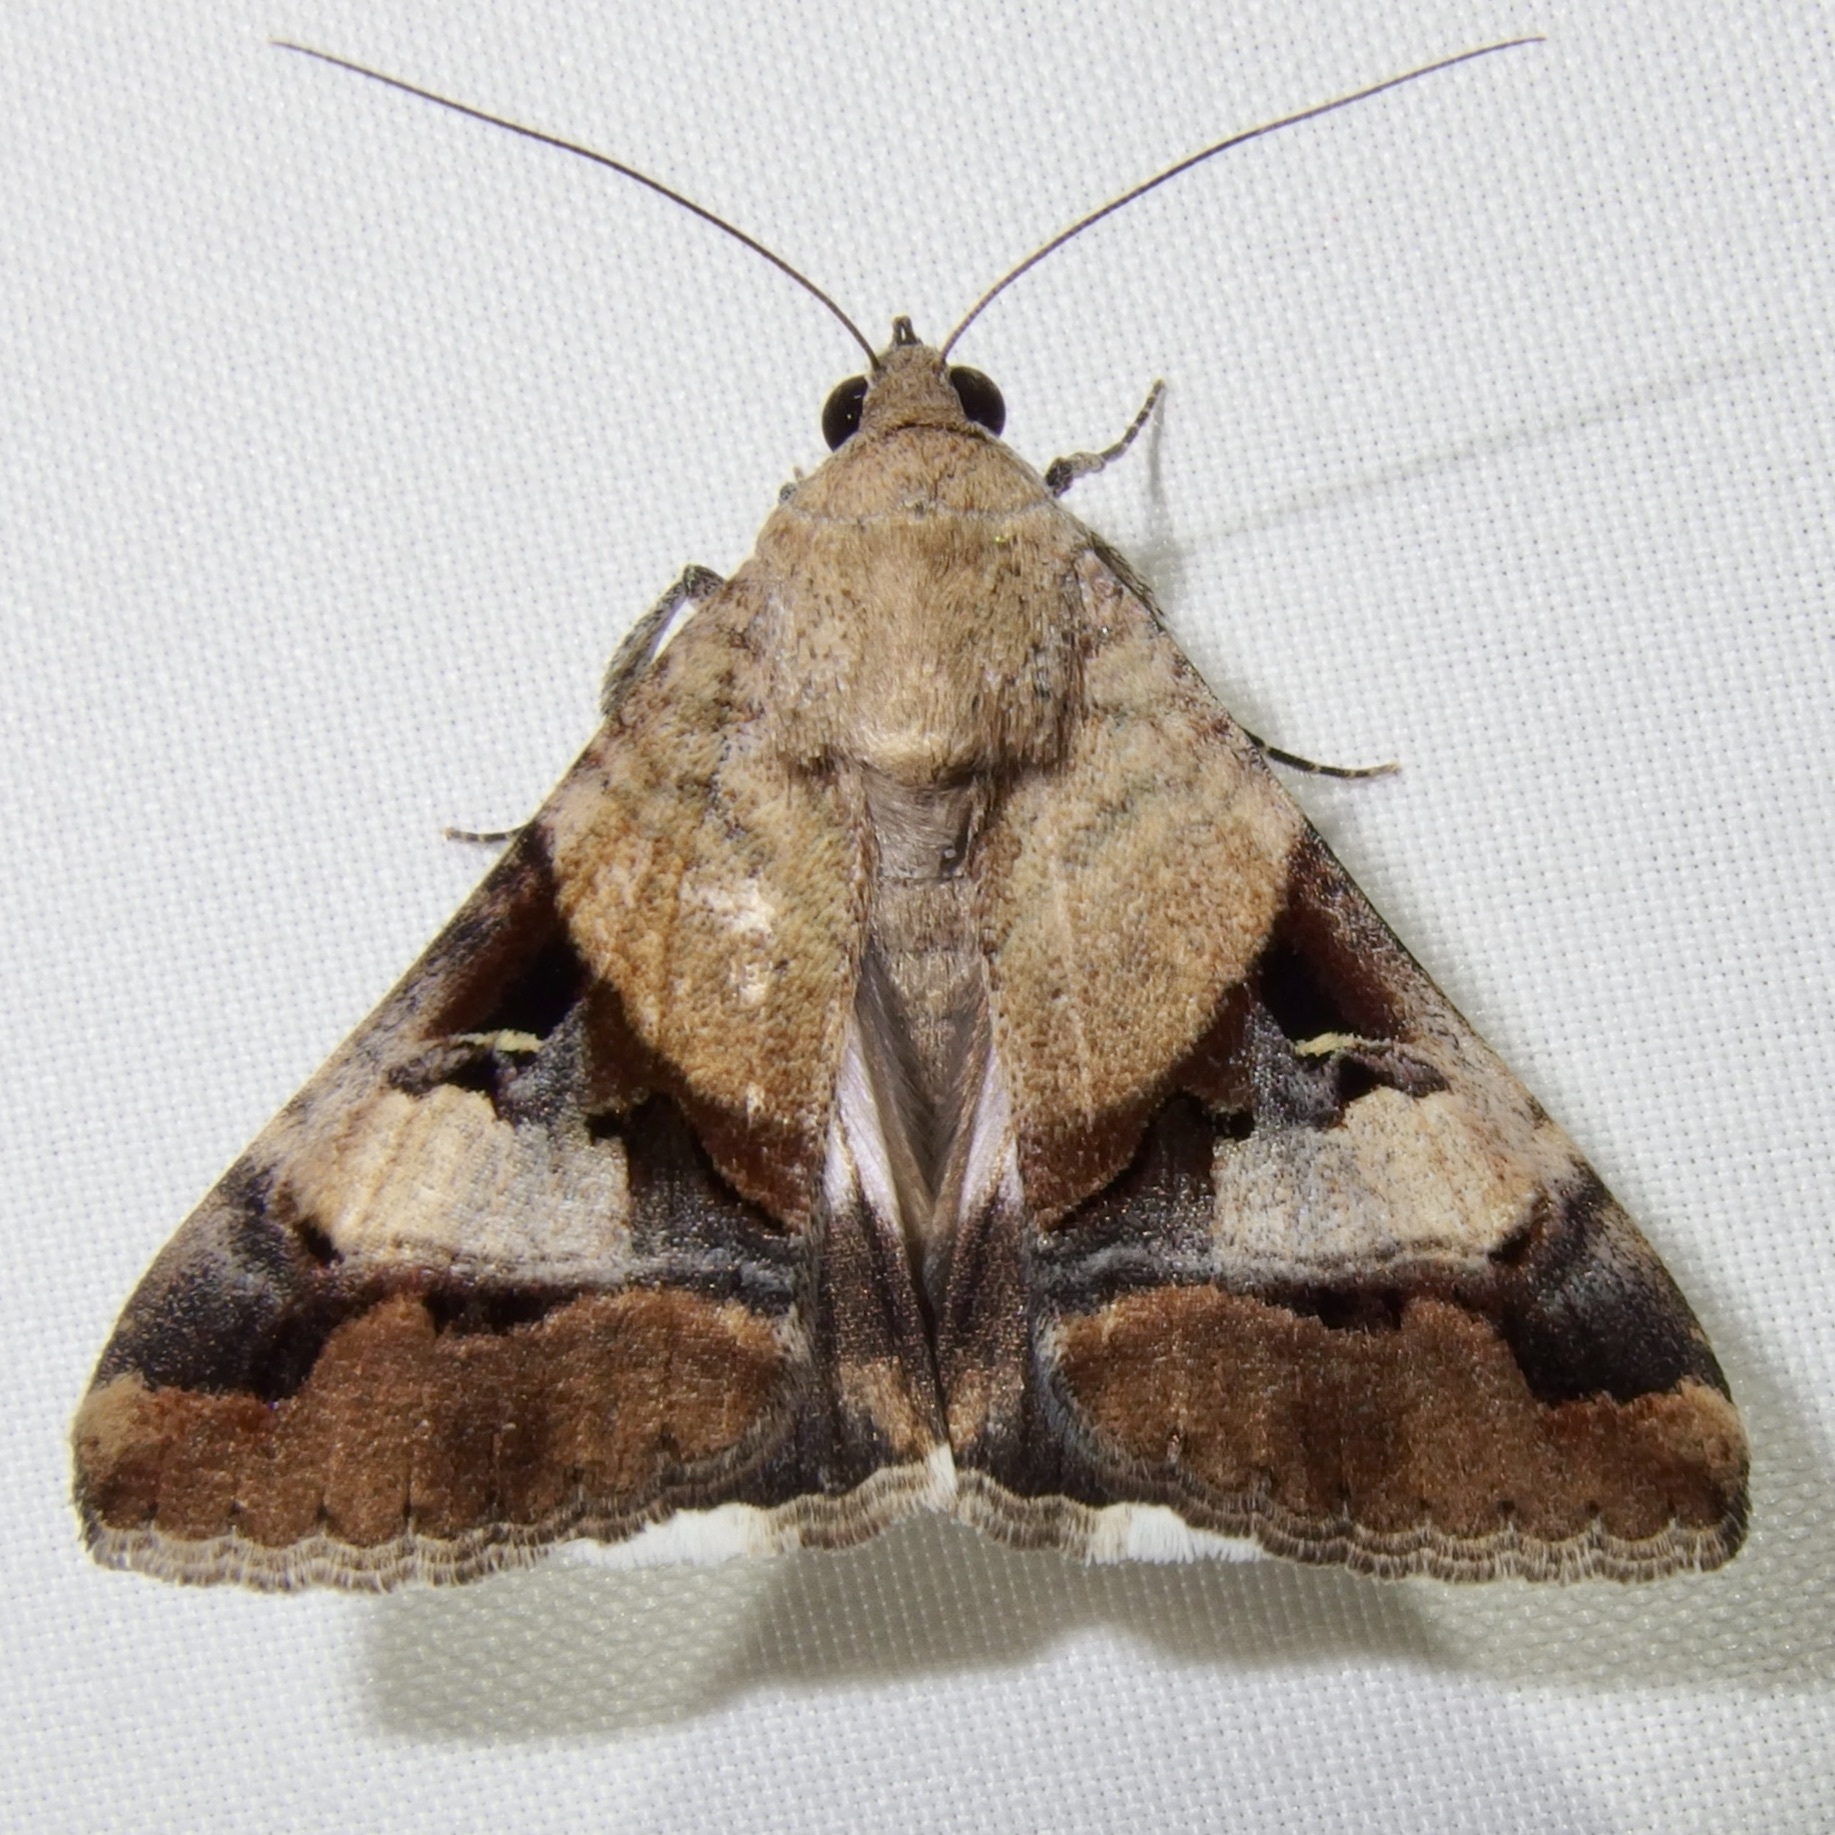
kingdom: Animalia
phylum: Arthropoda
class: Insecta
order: Lepidoptera
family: Erebidae
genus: Melipotis
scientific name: Melipotis perpendicularis
